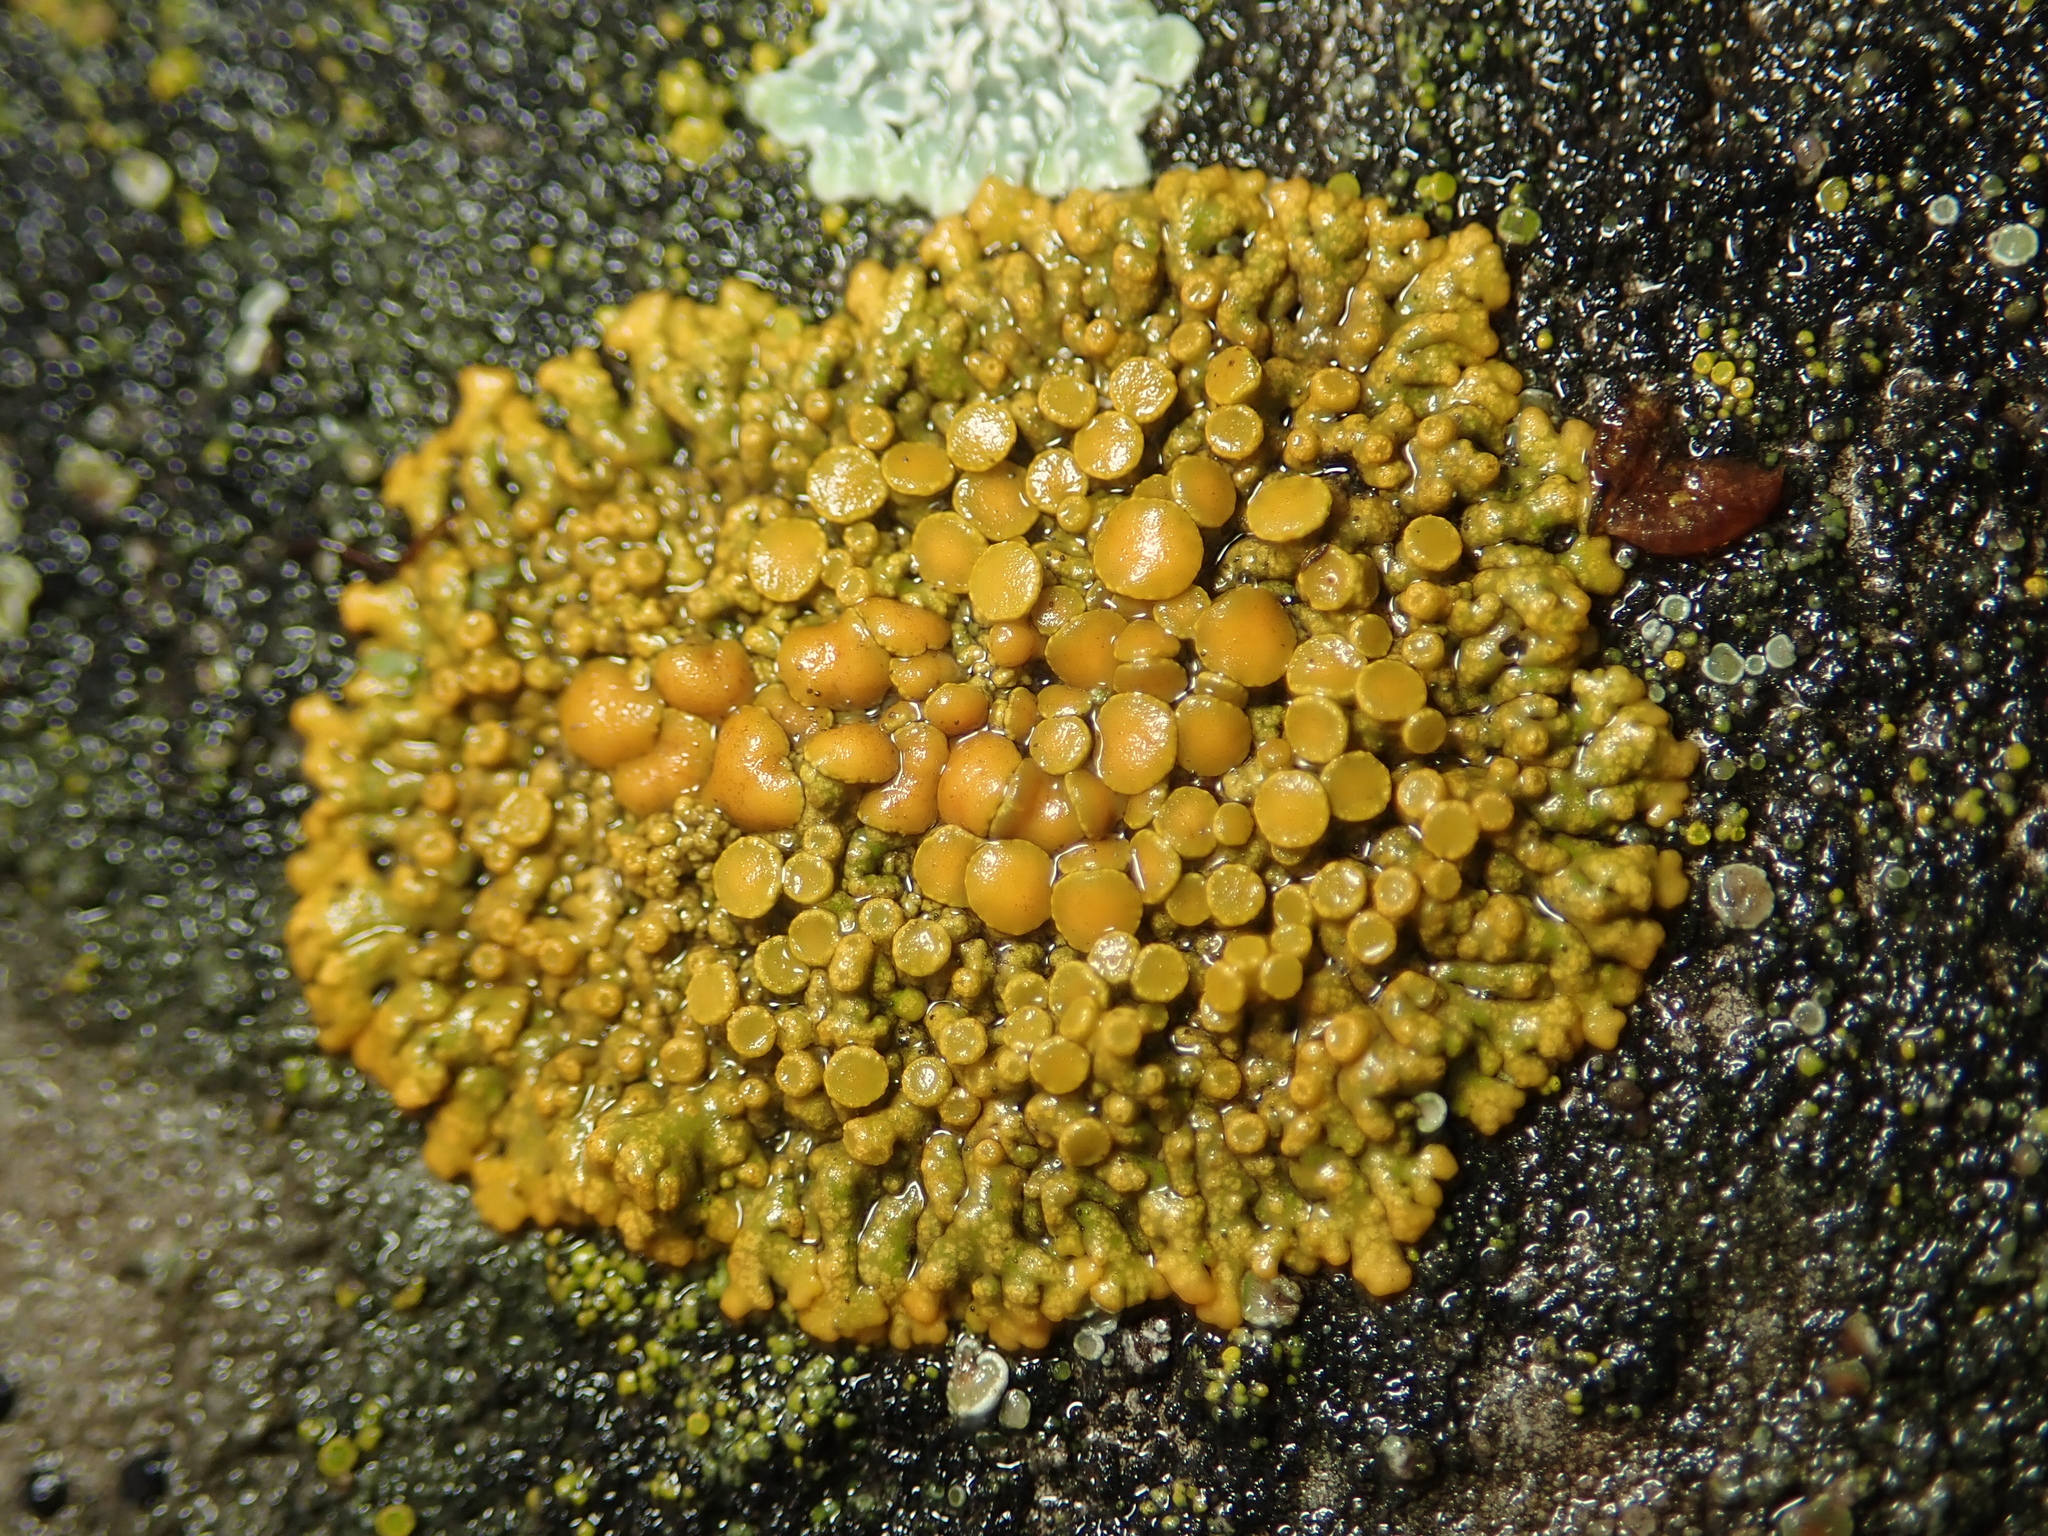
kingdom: Fungi
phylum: Ascomycota
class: Lecanoromycetes
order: Teloschistales
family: Teloschistaceae
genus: Xanthoria
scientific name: Xanthoria elegans
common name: Elegant sunburst lichen
